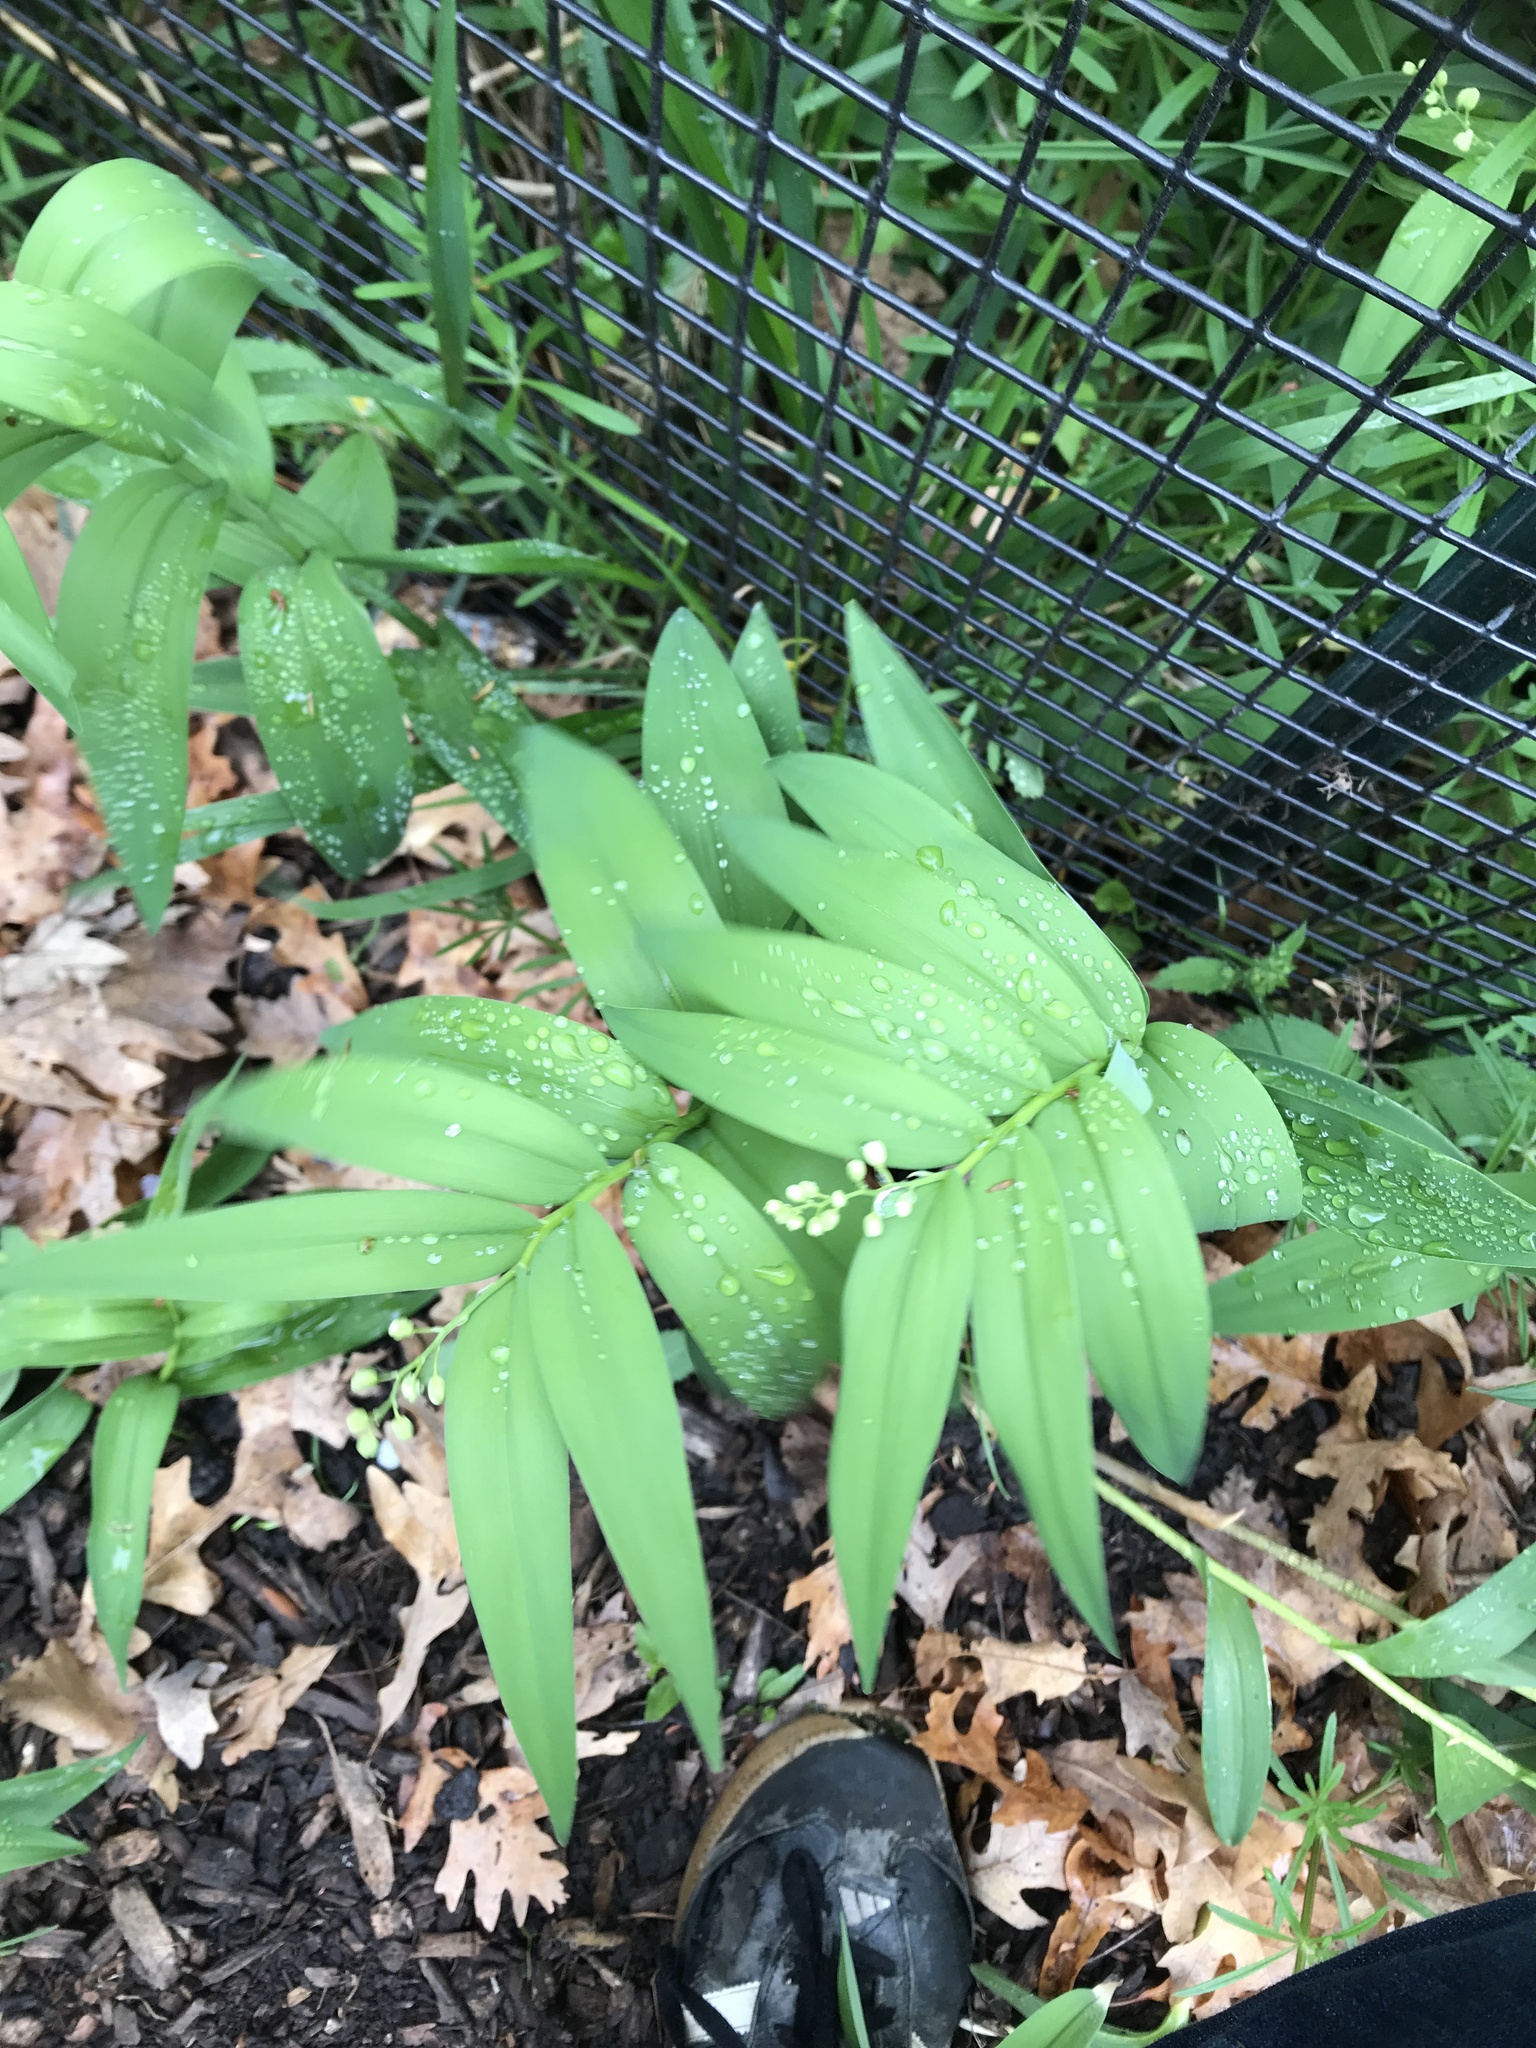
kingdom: Plantae
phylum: Tracheophyta
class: Liliopsida
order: Asparagales
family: Asparagaceae
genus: Maianthemum
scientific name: Maianthemum stellatum
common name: Little false solomon's seal
